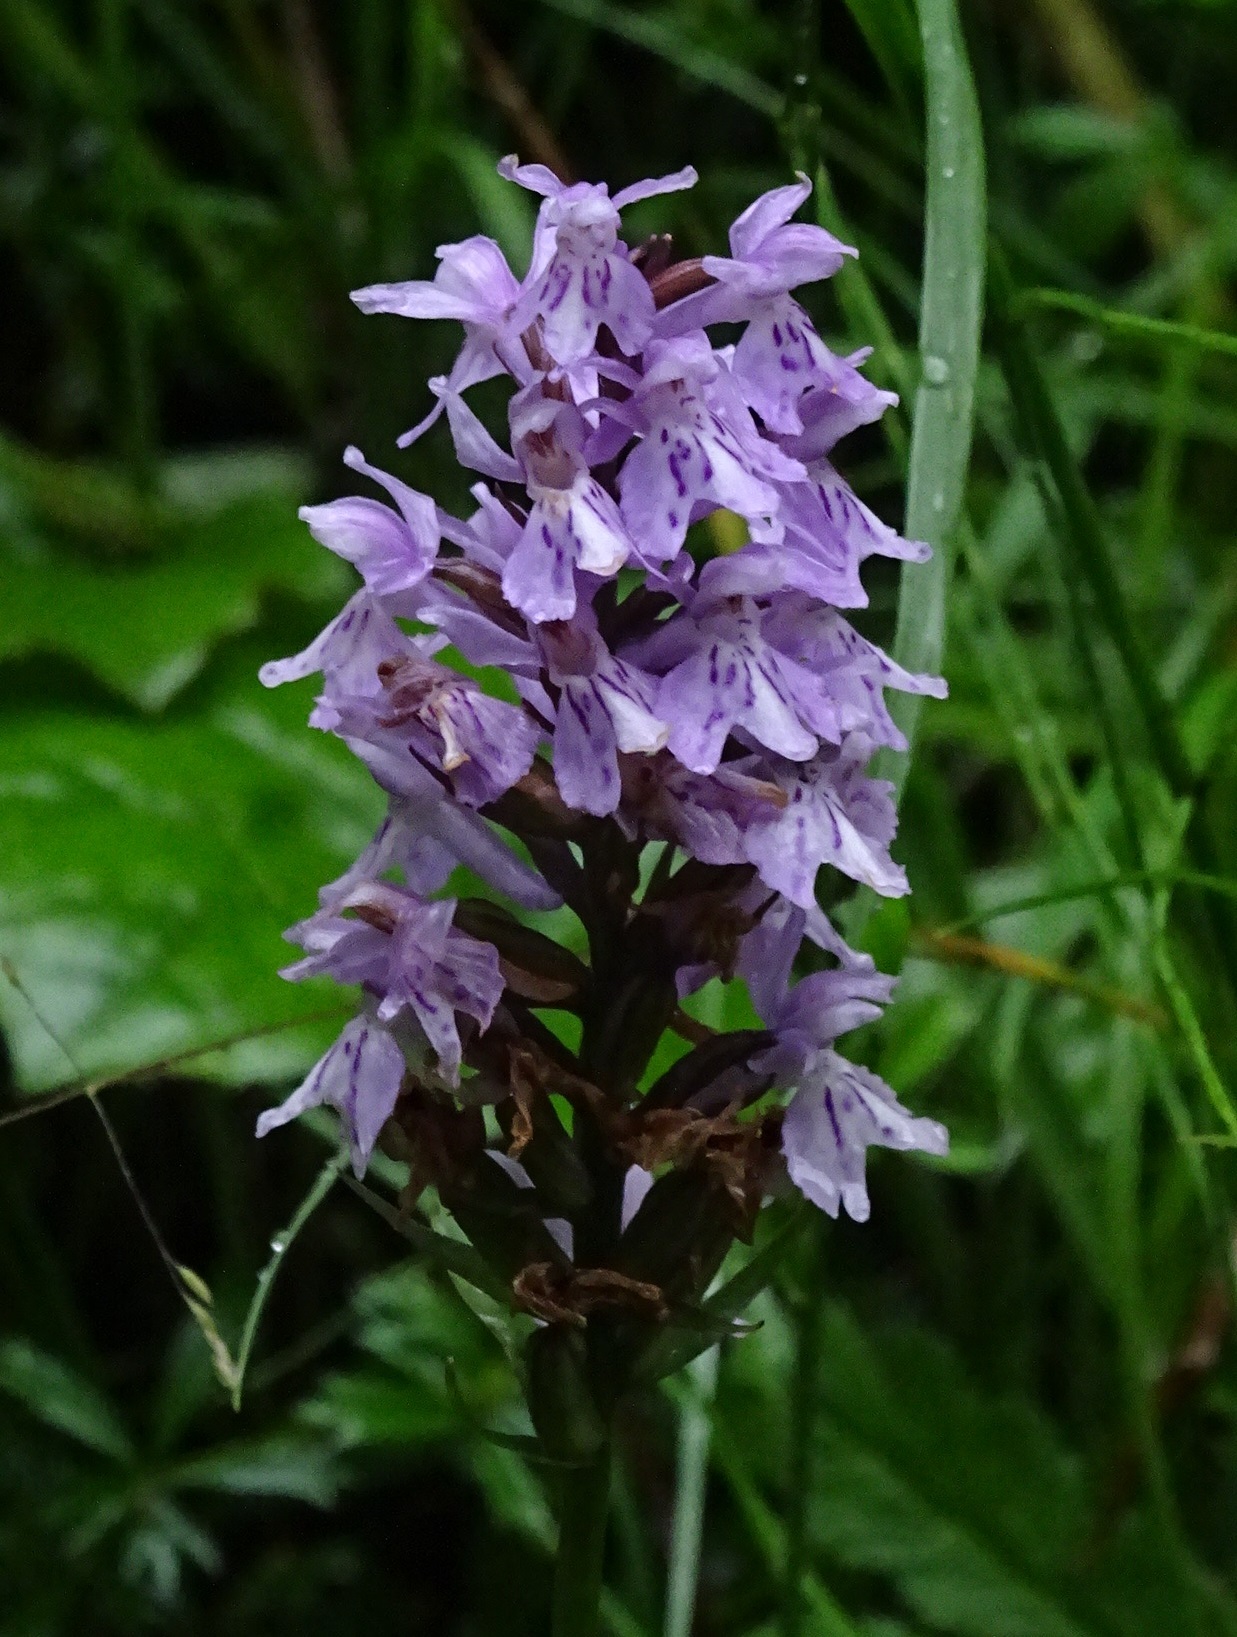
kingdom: Plantae
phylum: Tracheophyta
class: Liliopsida
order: Asparagales
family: Orchidaceae
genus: Dactylorhiza
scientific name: Dactylorhiza maculata
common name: Heath spotted-orchid
